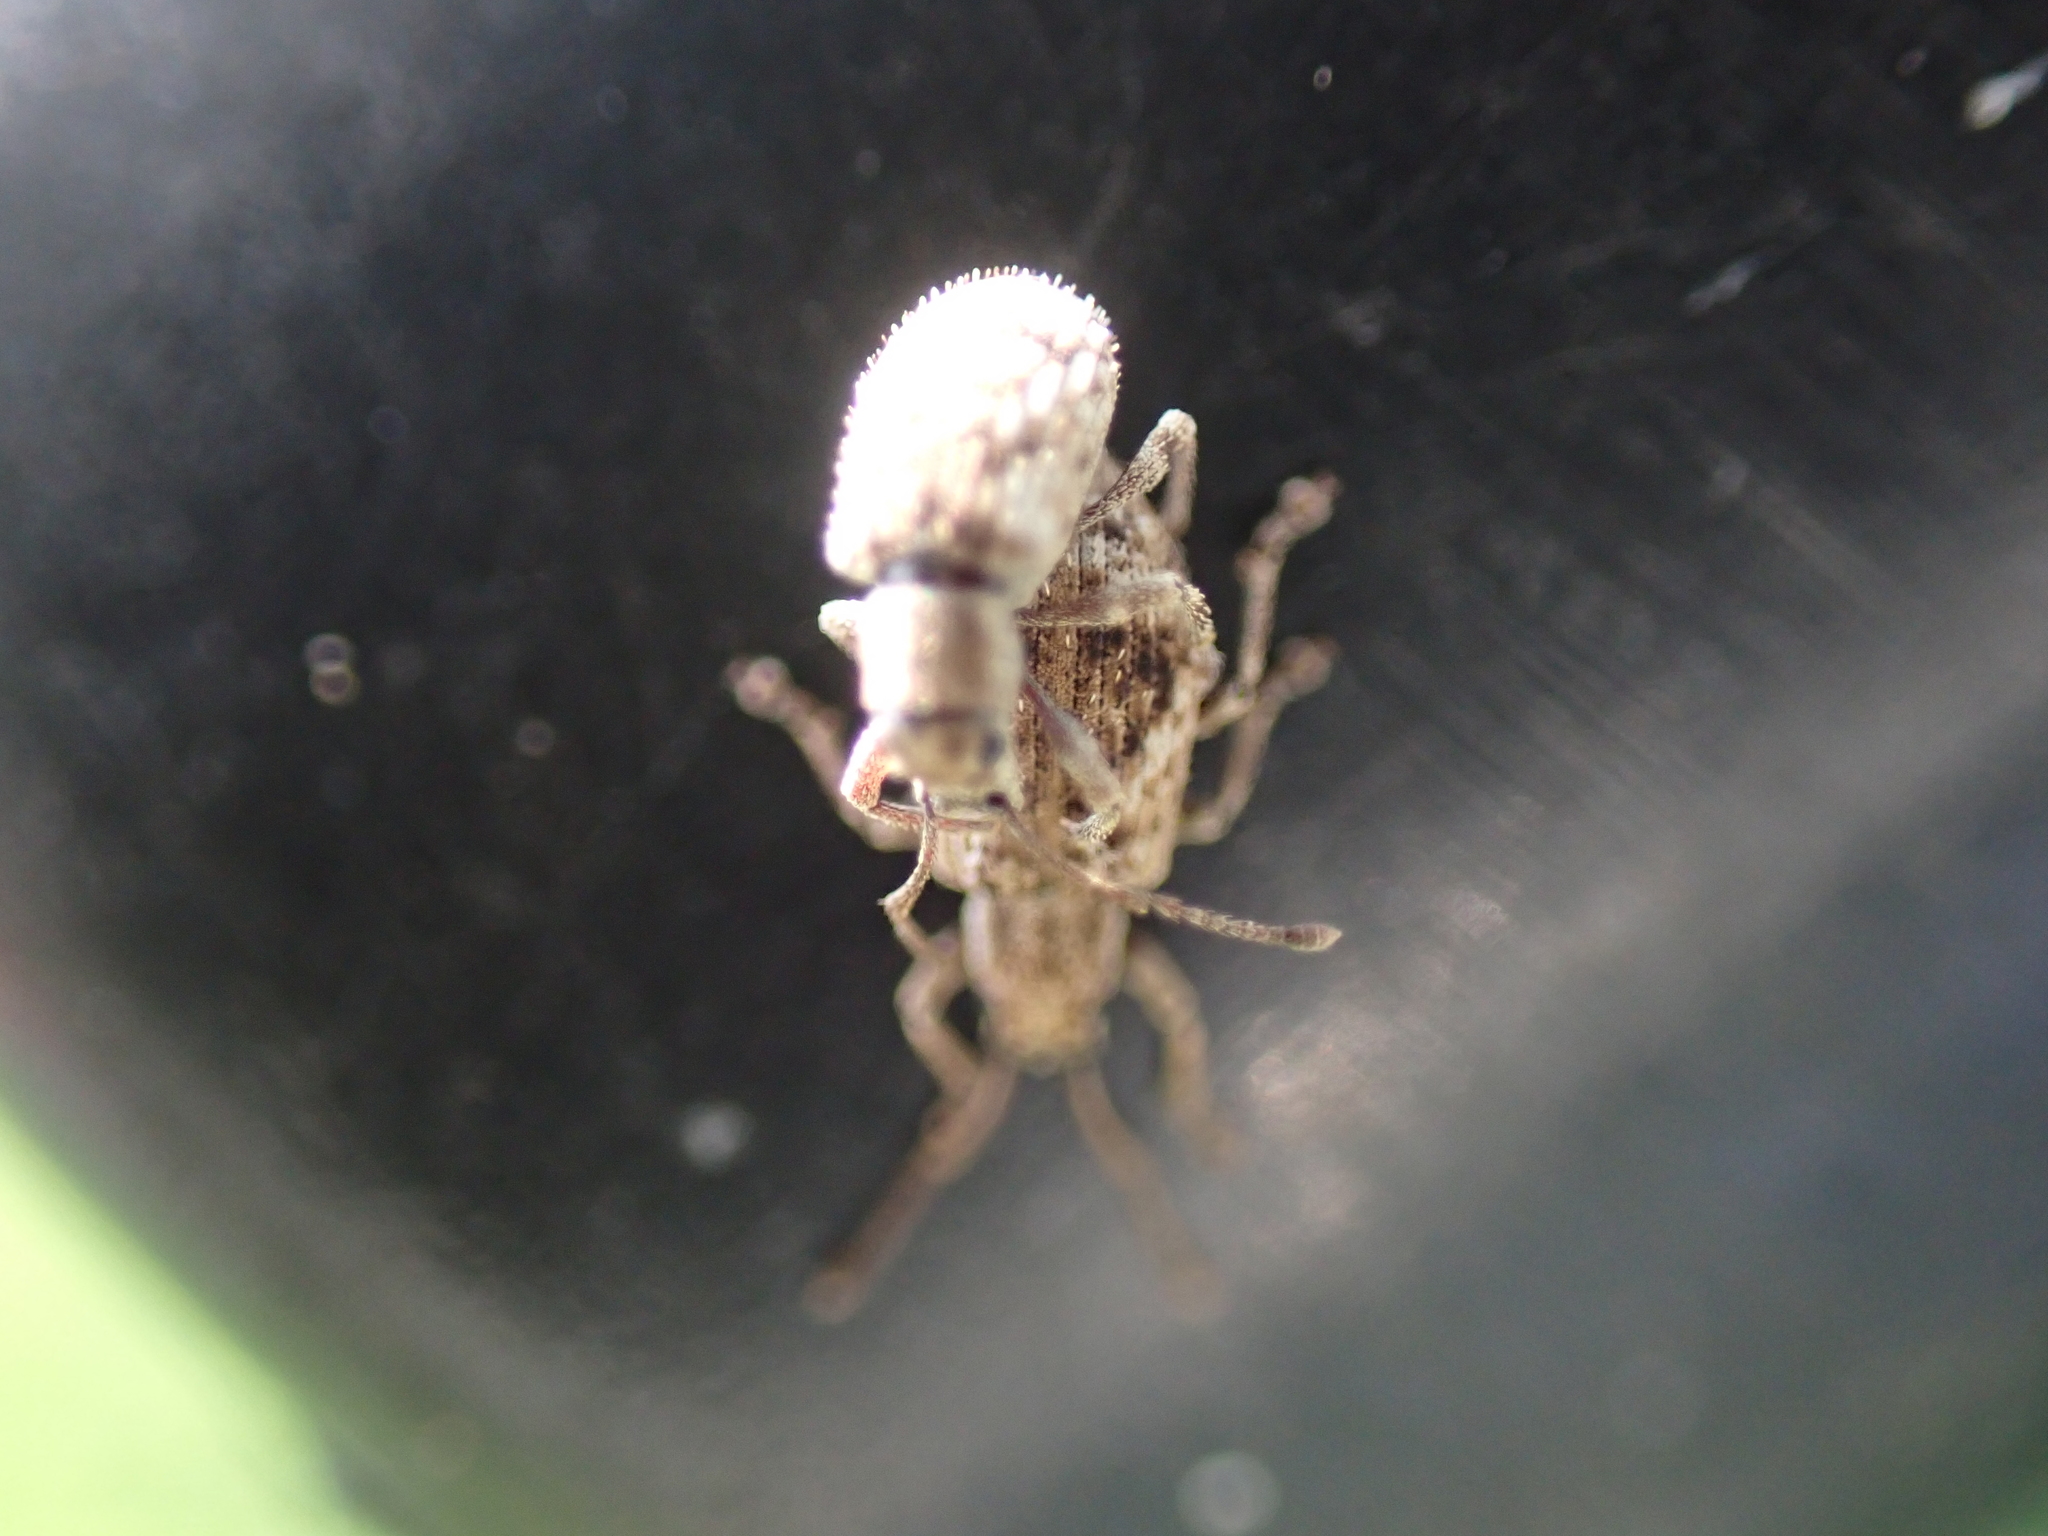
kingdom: Animalia
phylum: Arthropoda
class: Insecta
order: Coleoptera
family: Curculionidae
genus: Pseudoedophrys
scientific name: Pseudoedophrys hilleri
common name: Weevil
